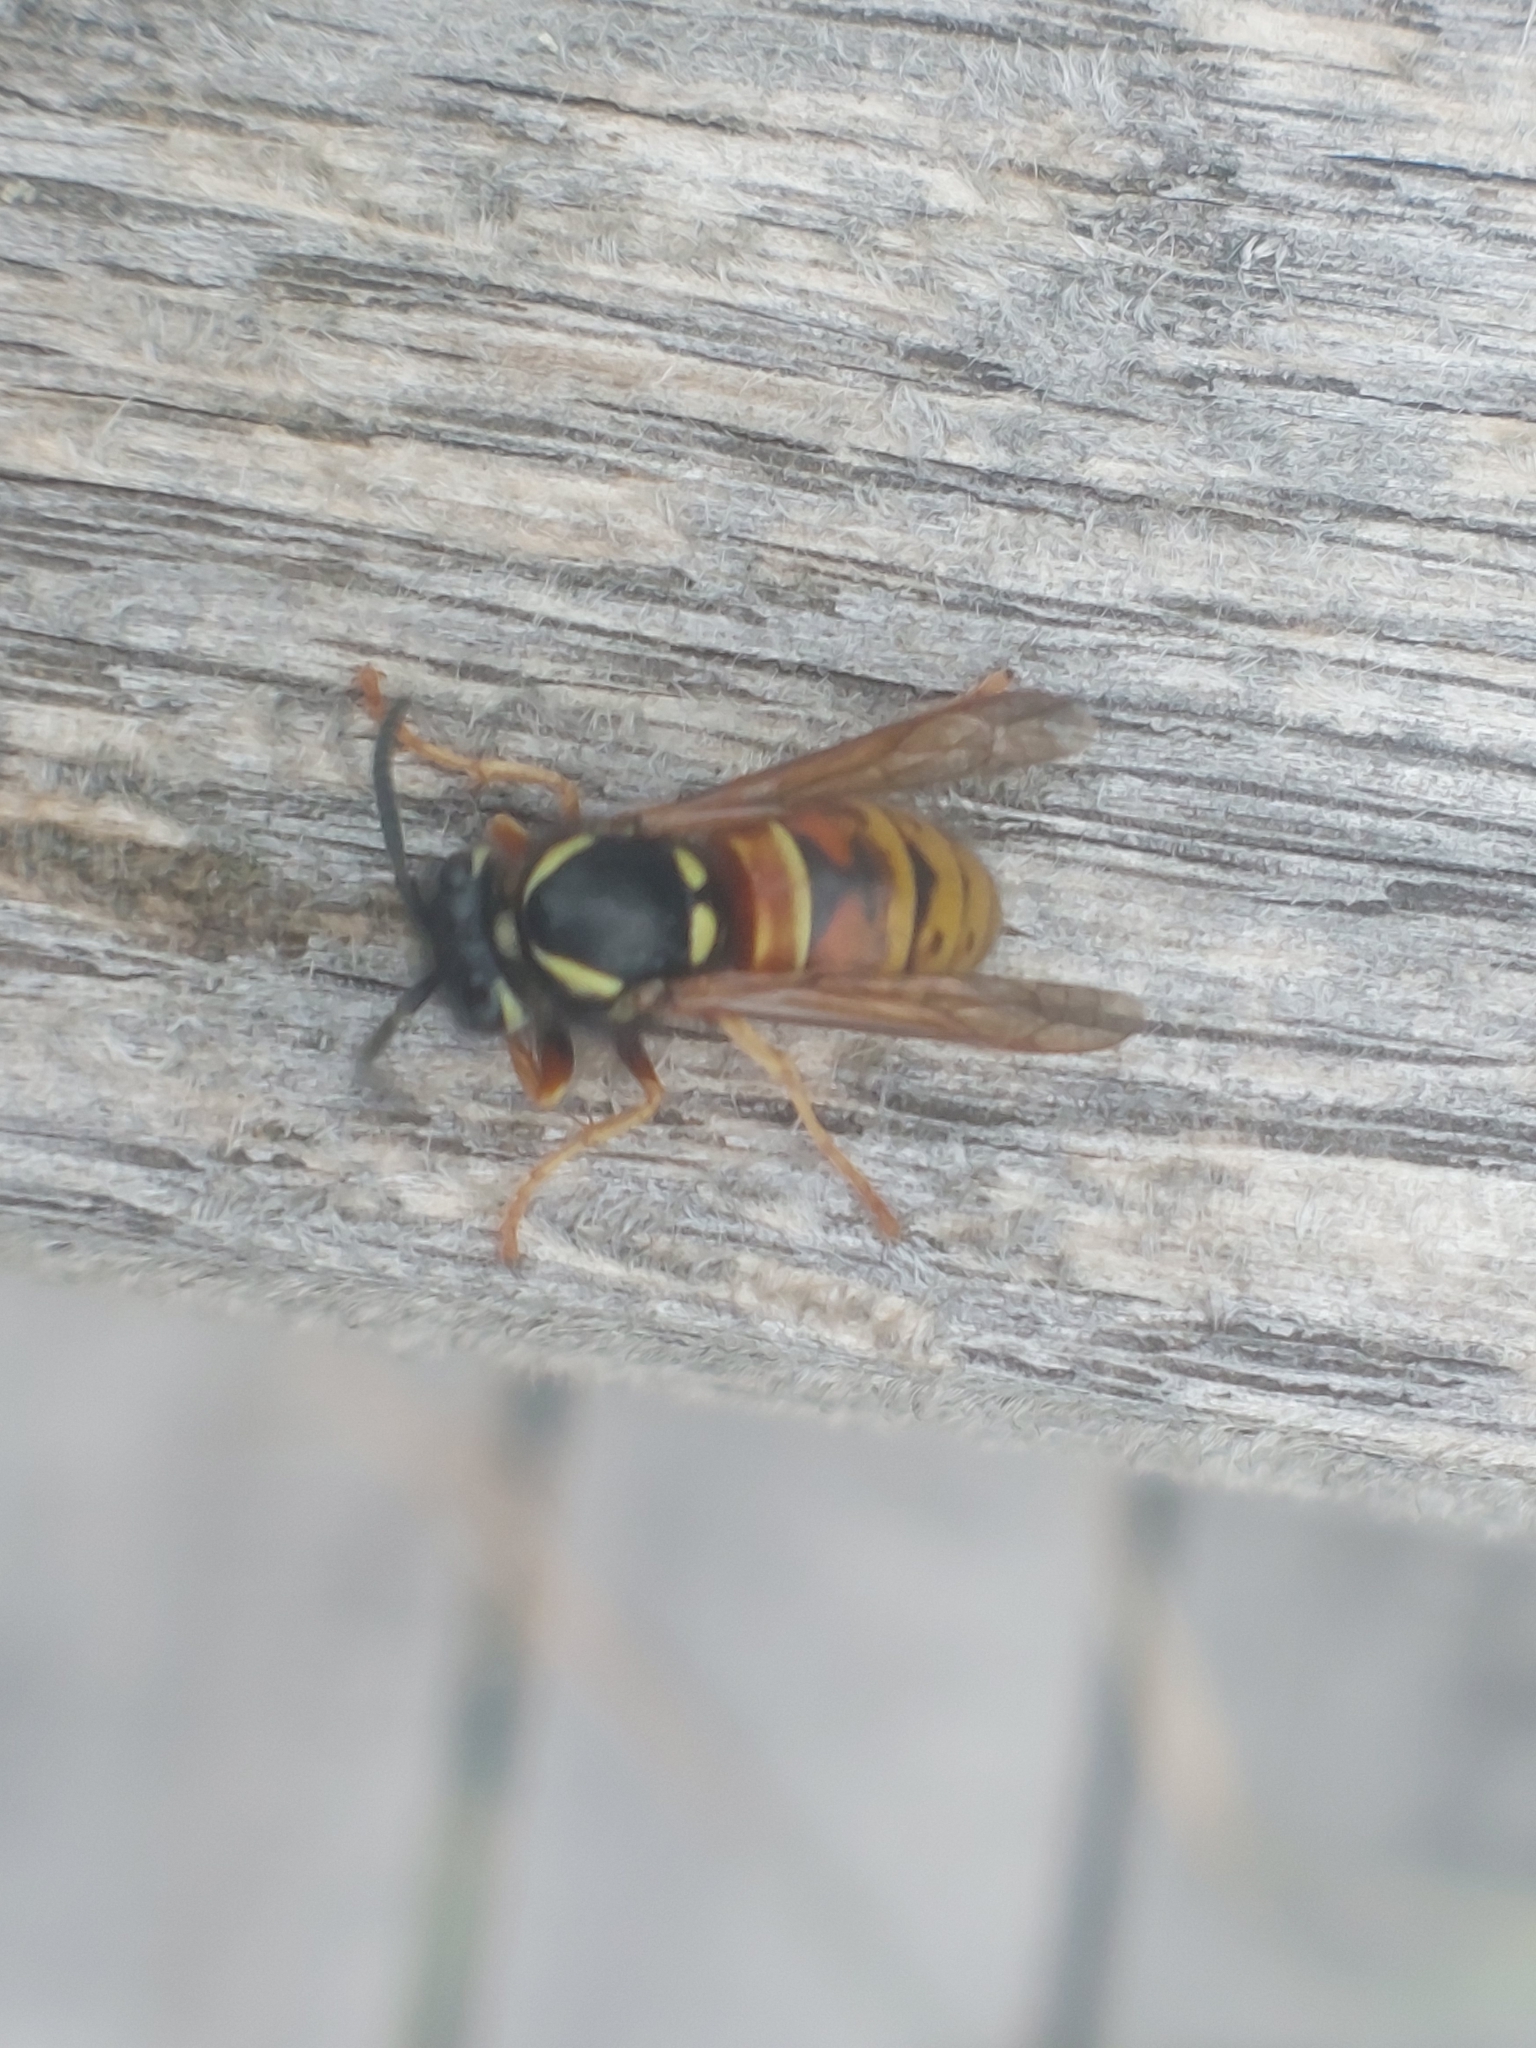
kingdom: Animalia
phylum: Arthropoda
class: Insecta
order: Hymenoptera
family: Vespidae
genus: Vespula
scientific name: Vespula rufa
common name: Red wasp
